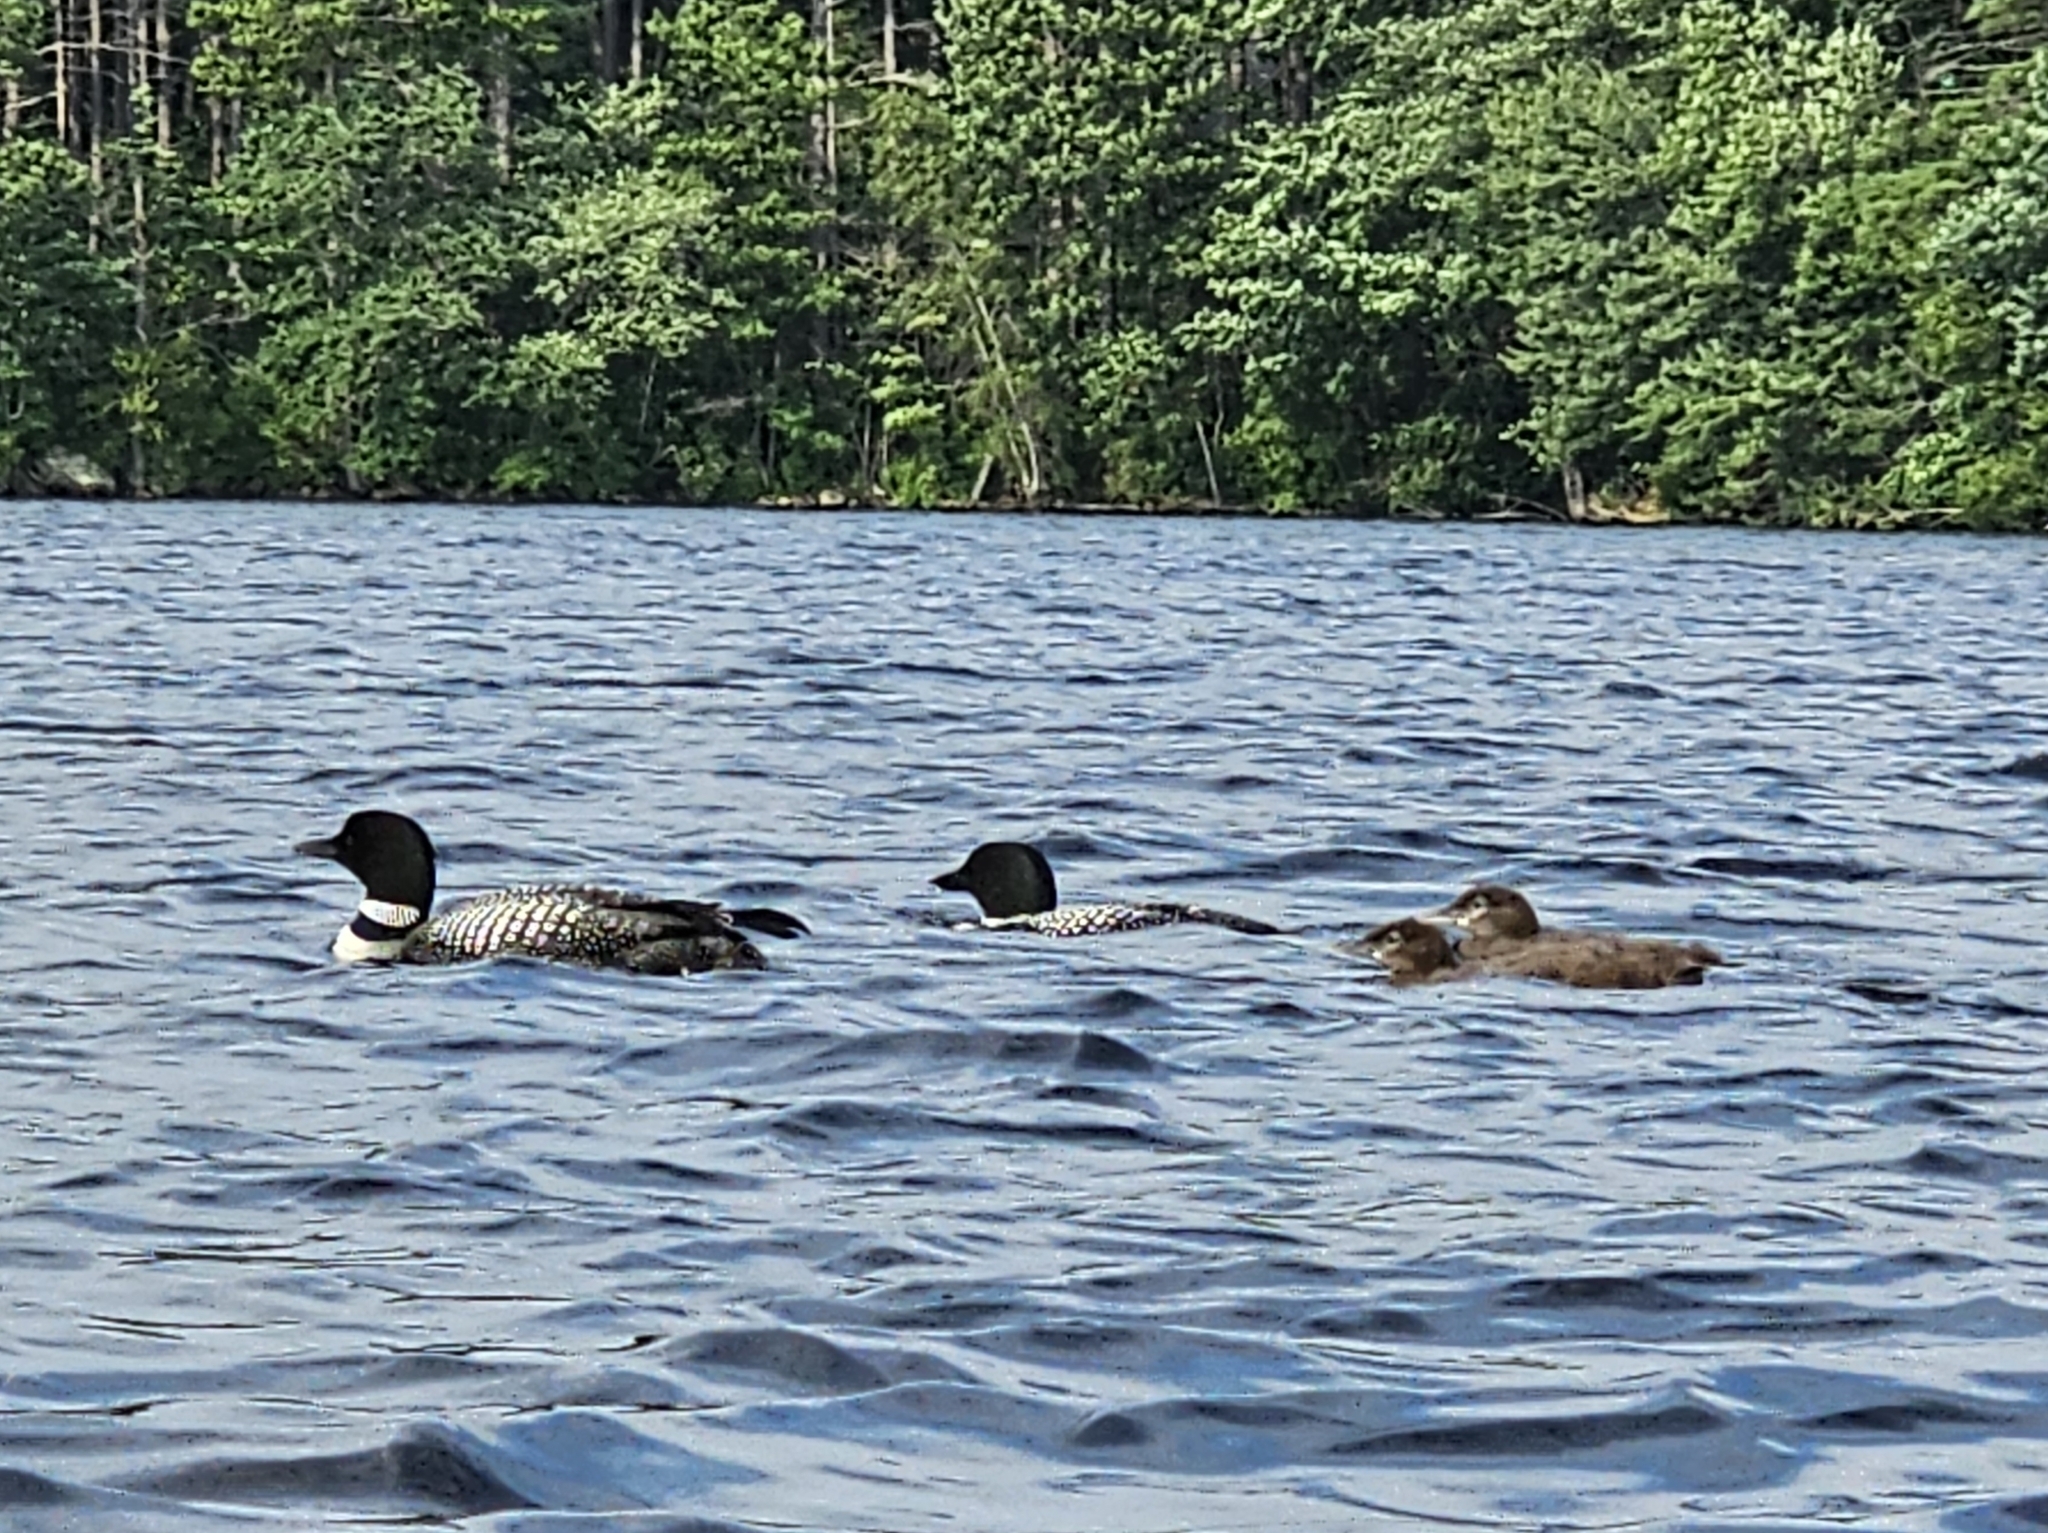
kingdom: Animalia
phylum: Chordata
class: Aves
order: Gaviiformes
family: Gaviidae
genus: Gavia
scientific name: Gavia immer
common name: Common loon
